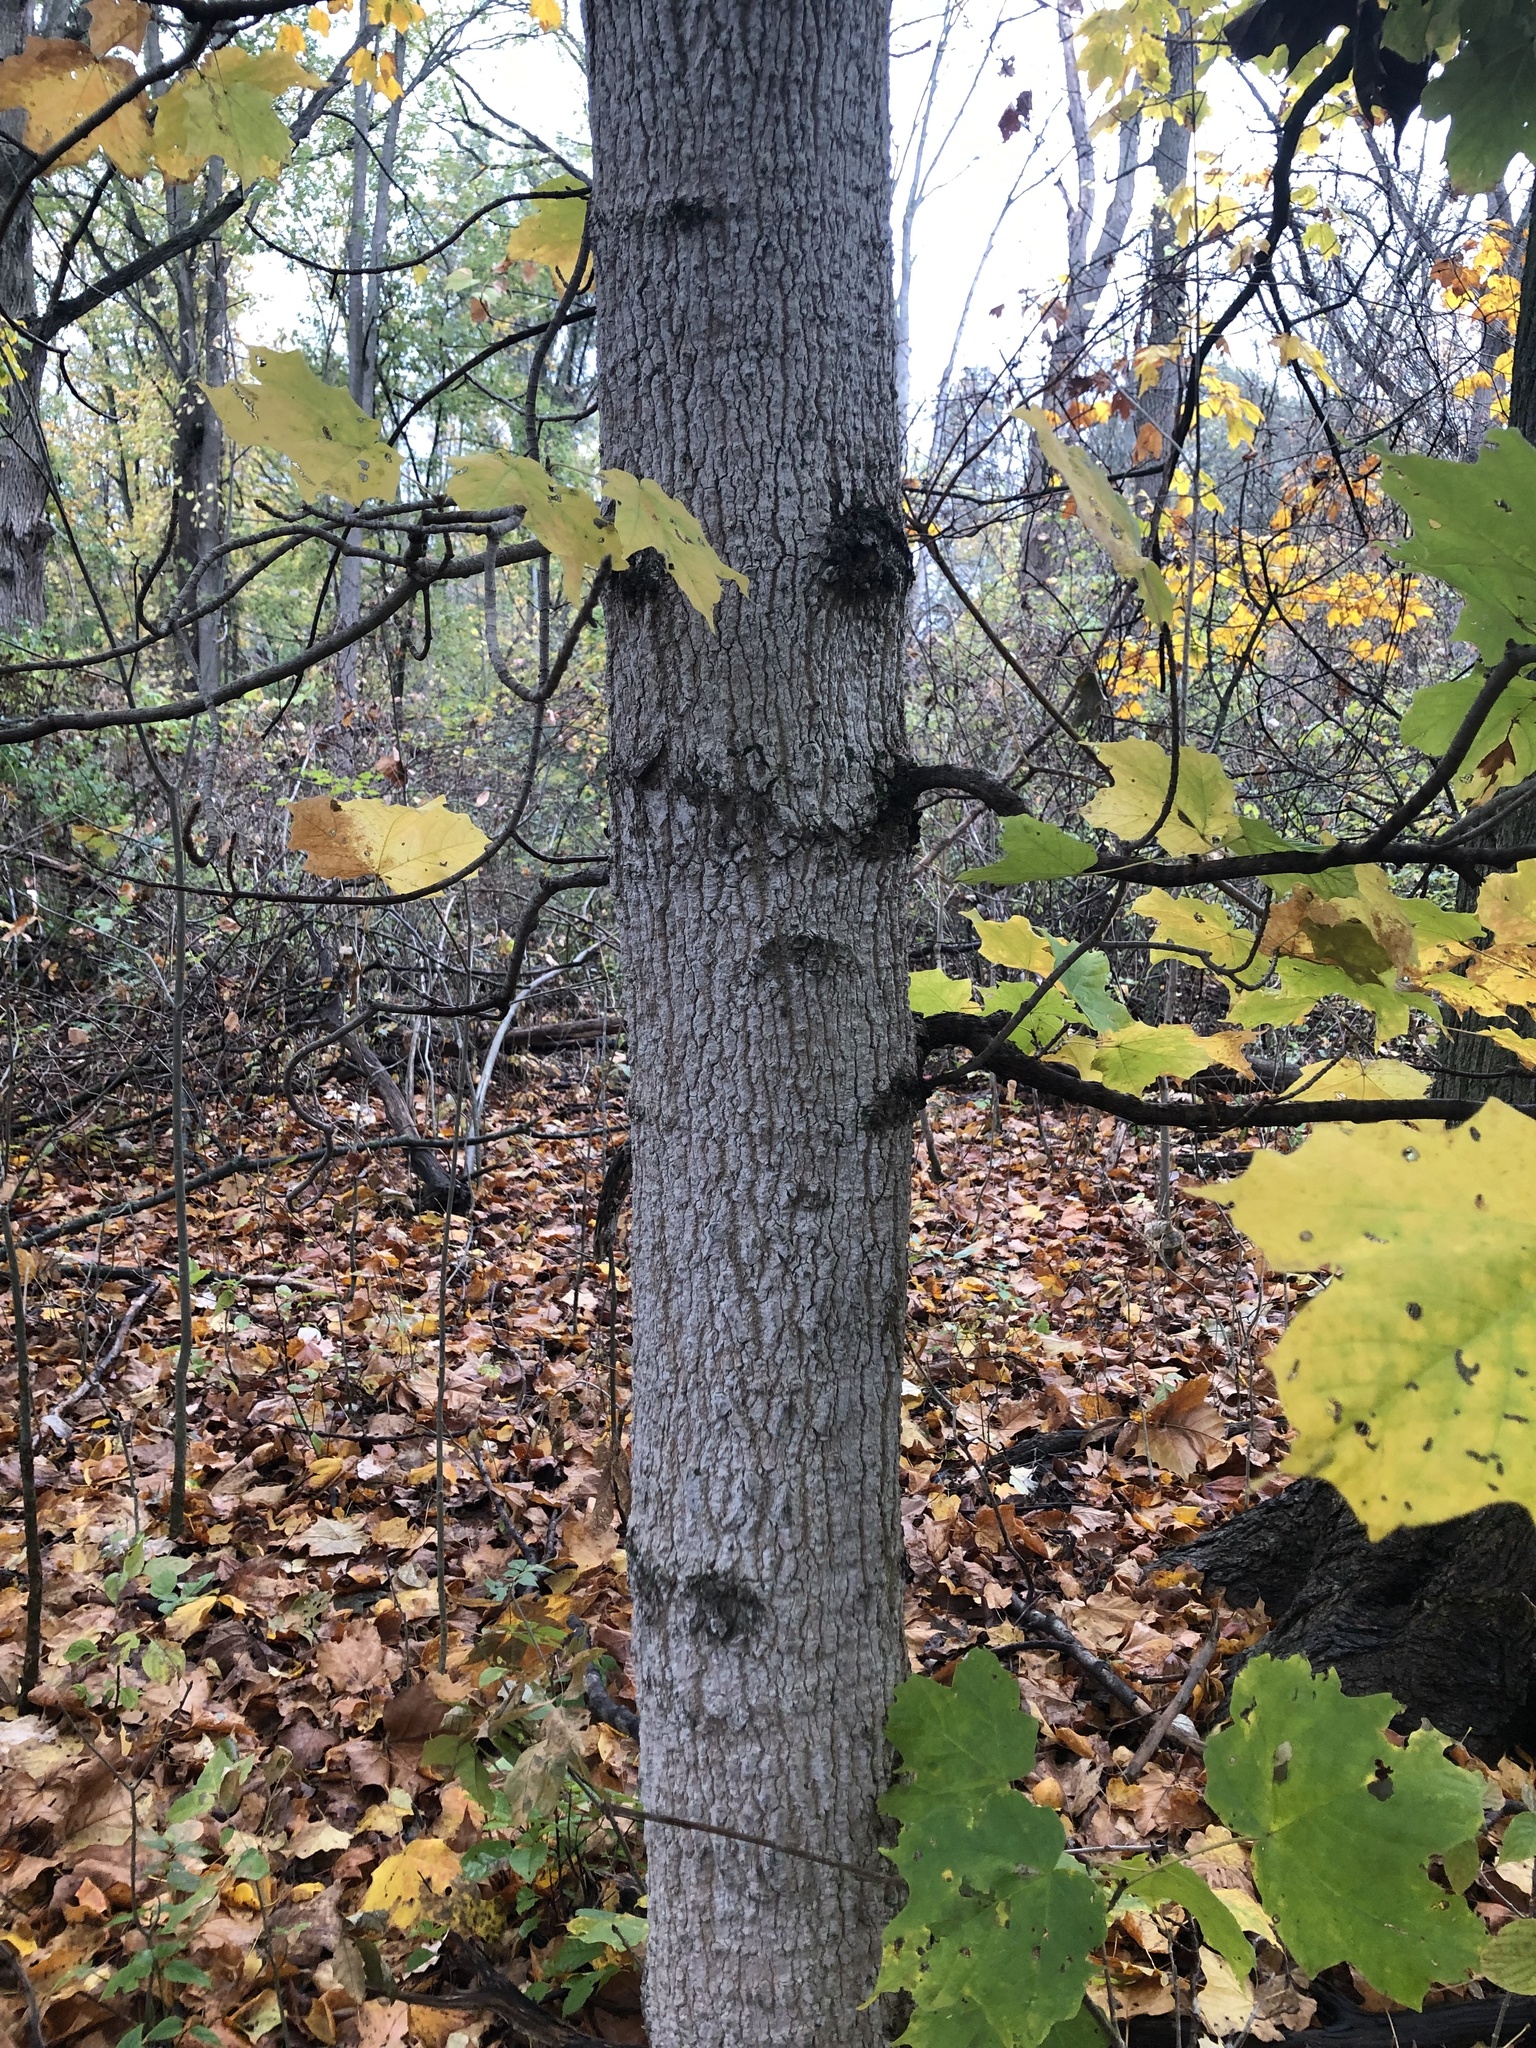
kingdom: Plantae
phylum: Tracheophyta
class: Magnoliopsida
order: Sapindales
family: Sapindaceae
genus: Acer
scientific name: Acer nigrum
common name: Black maple
